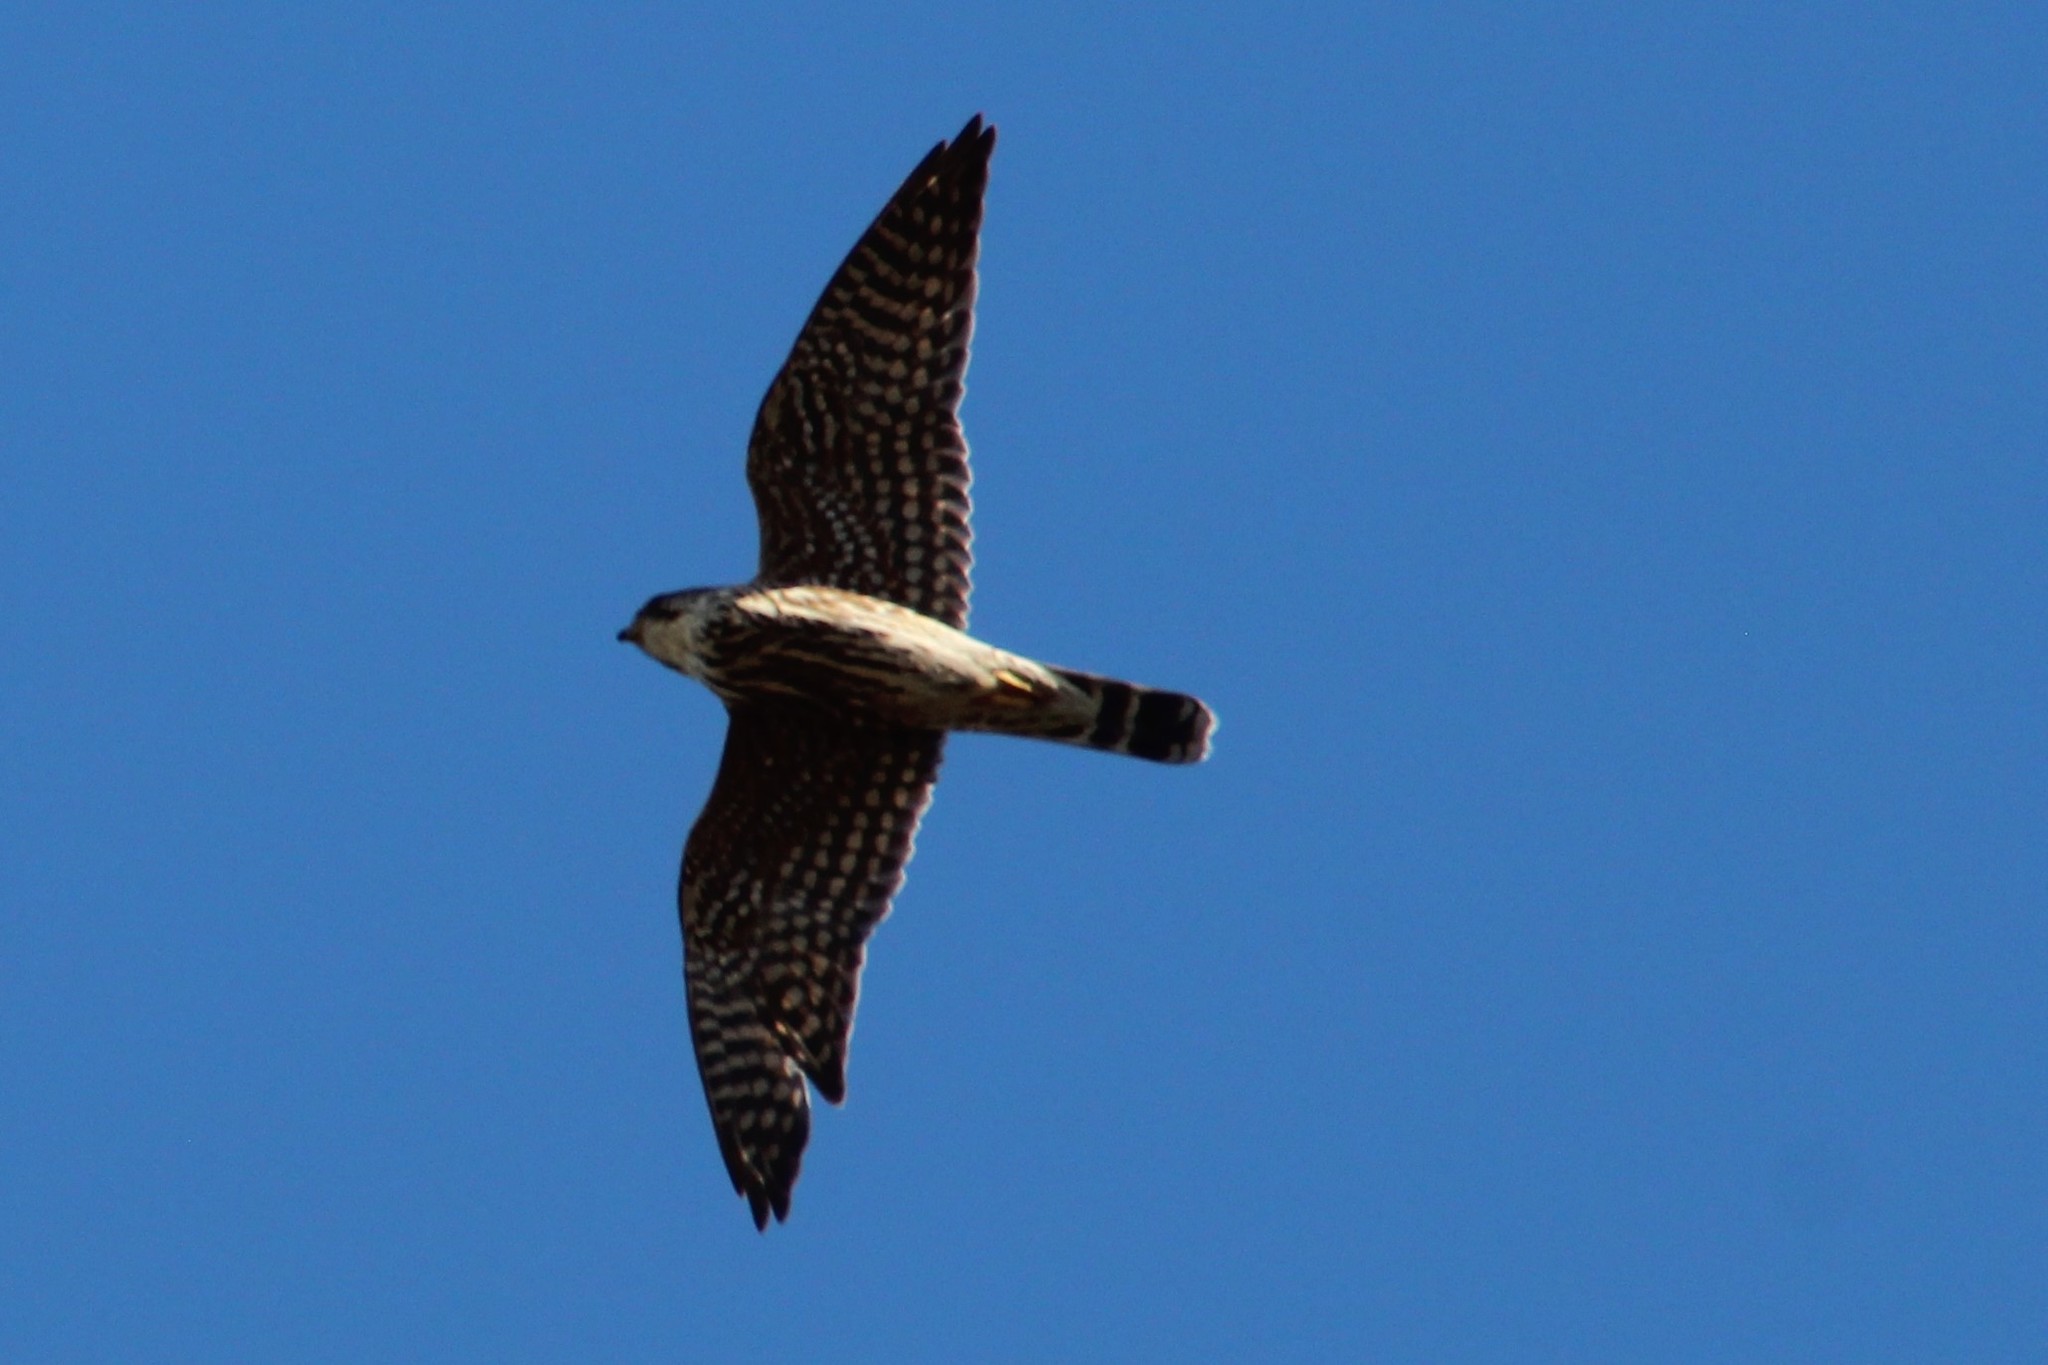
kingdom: Animalia
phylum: Chordata
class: Aves
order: Falconiformes
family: Falconidae
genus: Falco
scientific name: Falco columbarius
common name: Merlin
